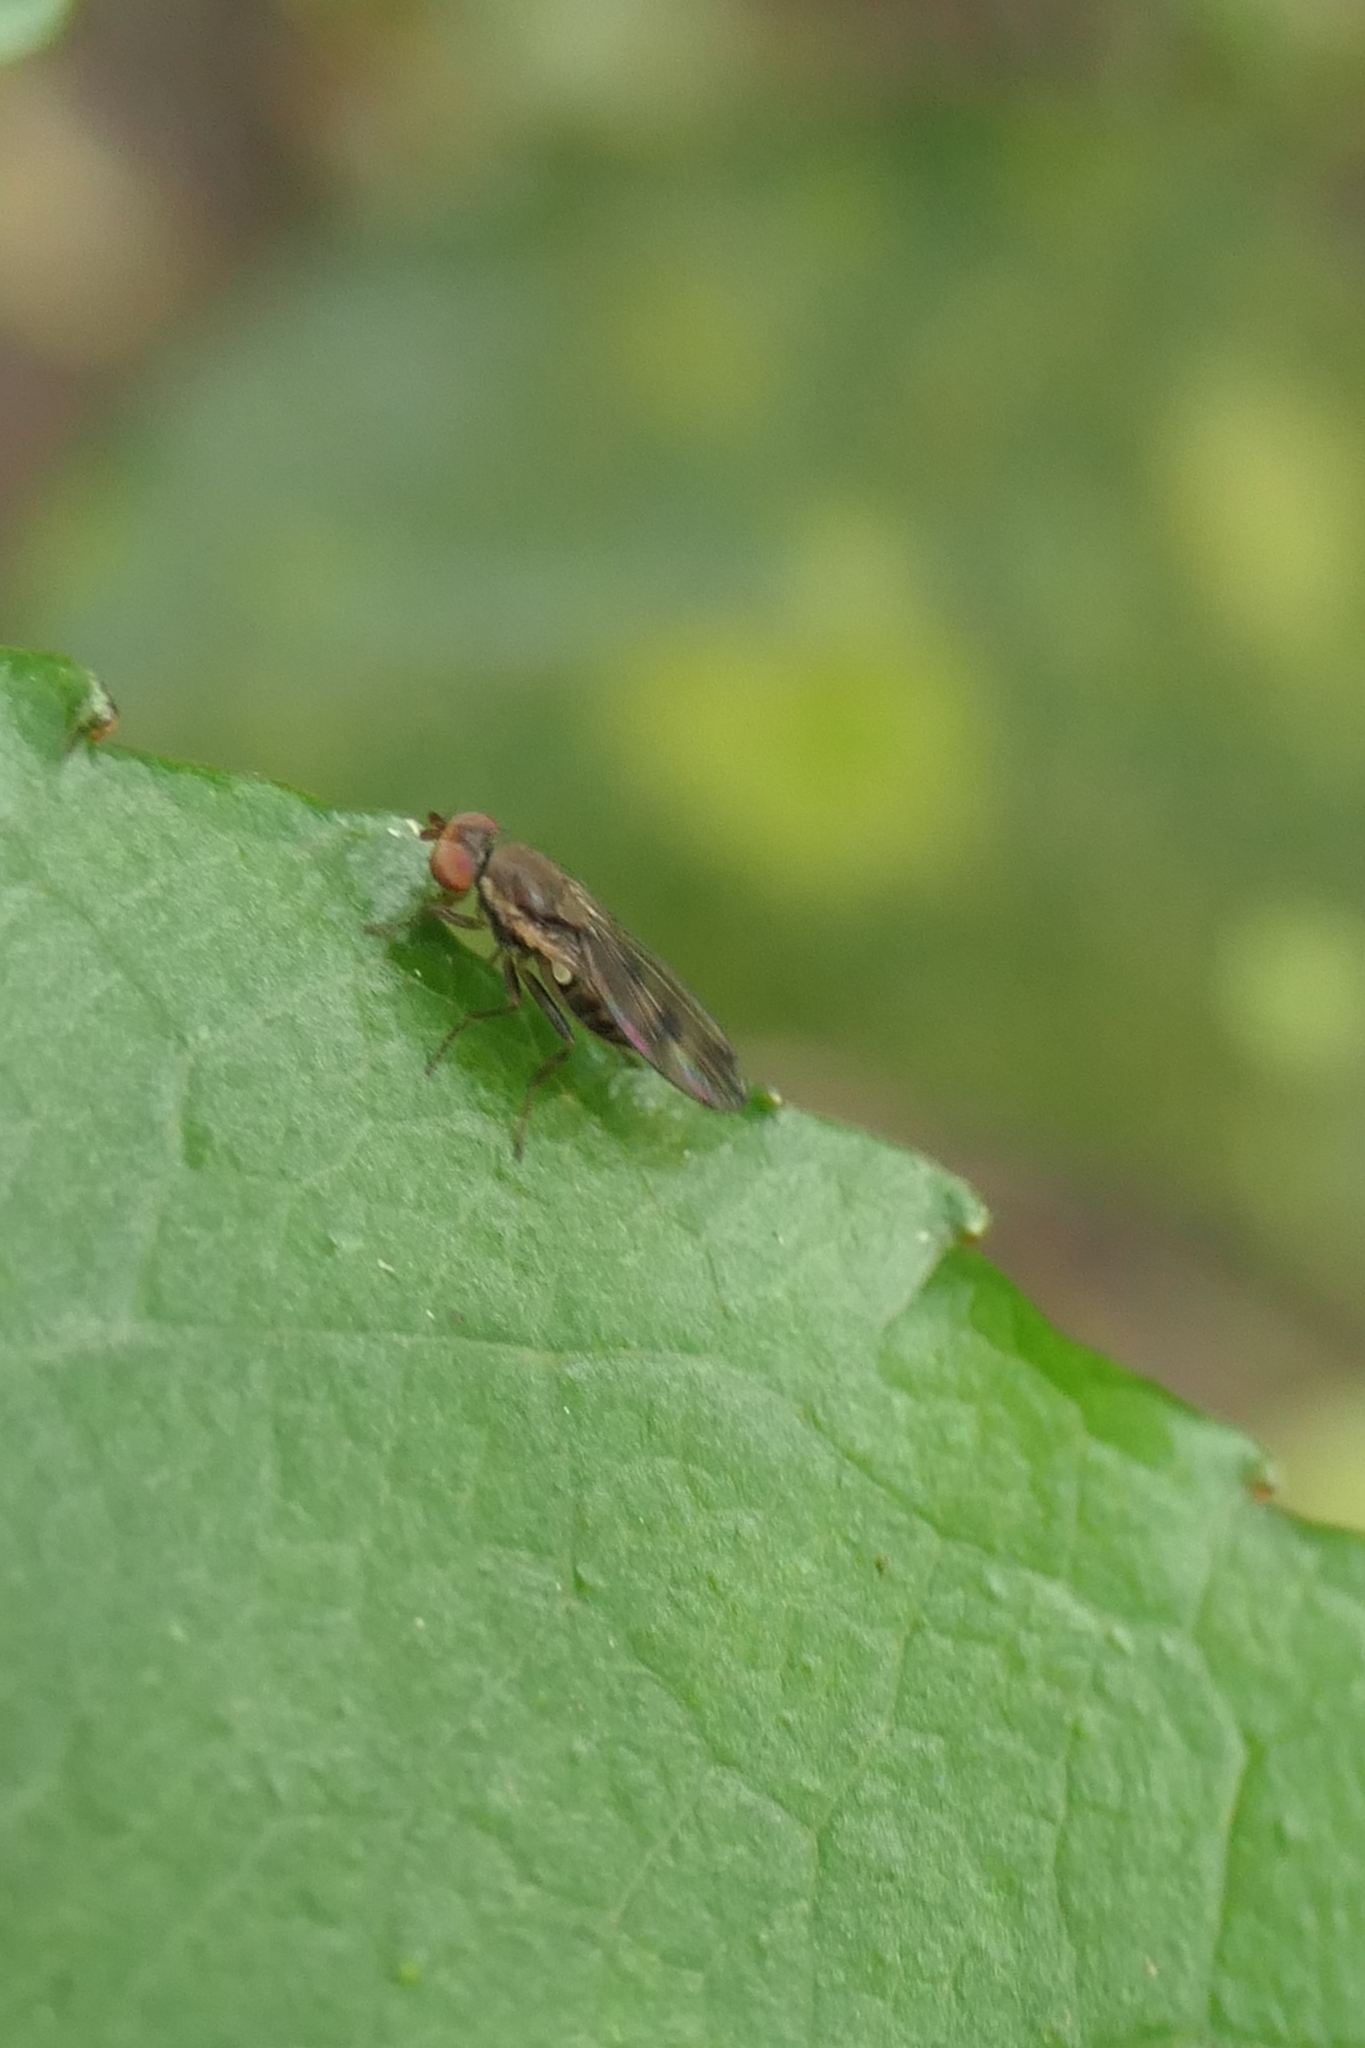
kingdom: Animalia
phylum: Arthropoda
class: Insecta
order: Diptera
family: Heleomyzidae
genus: Fenwickia
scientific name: Fenwickia hirsuta
